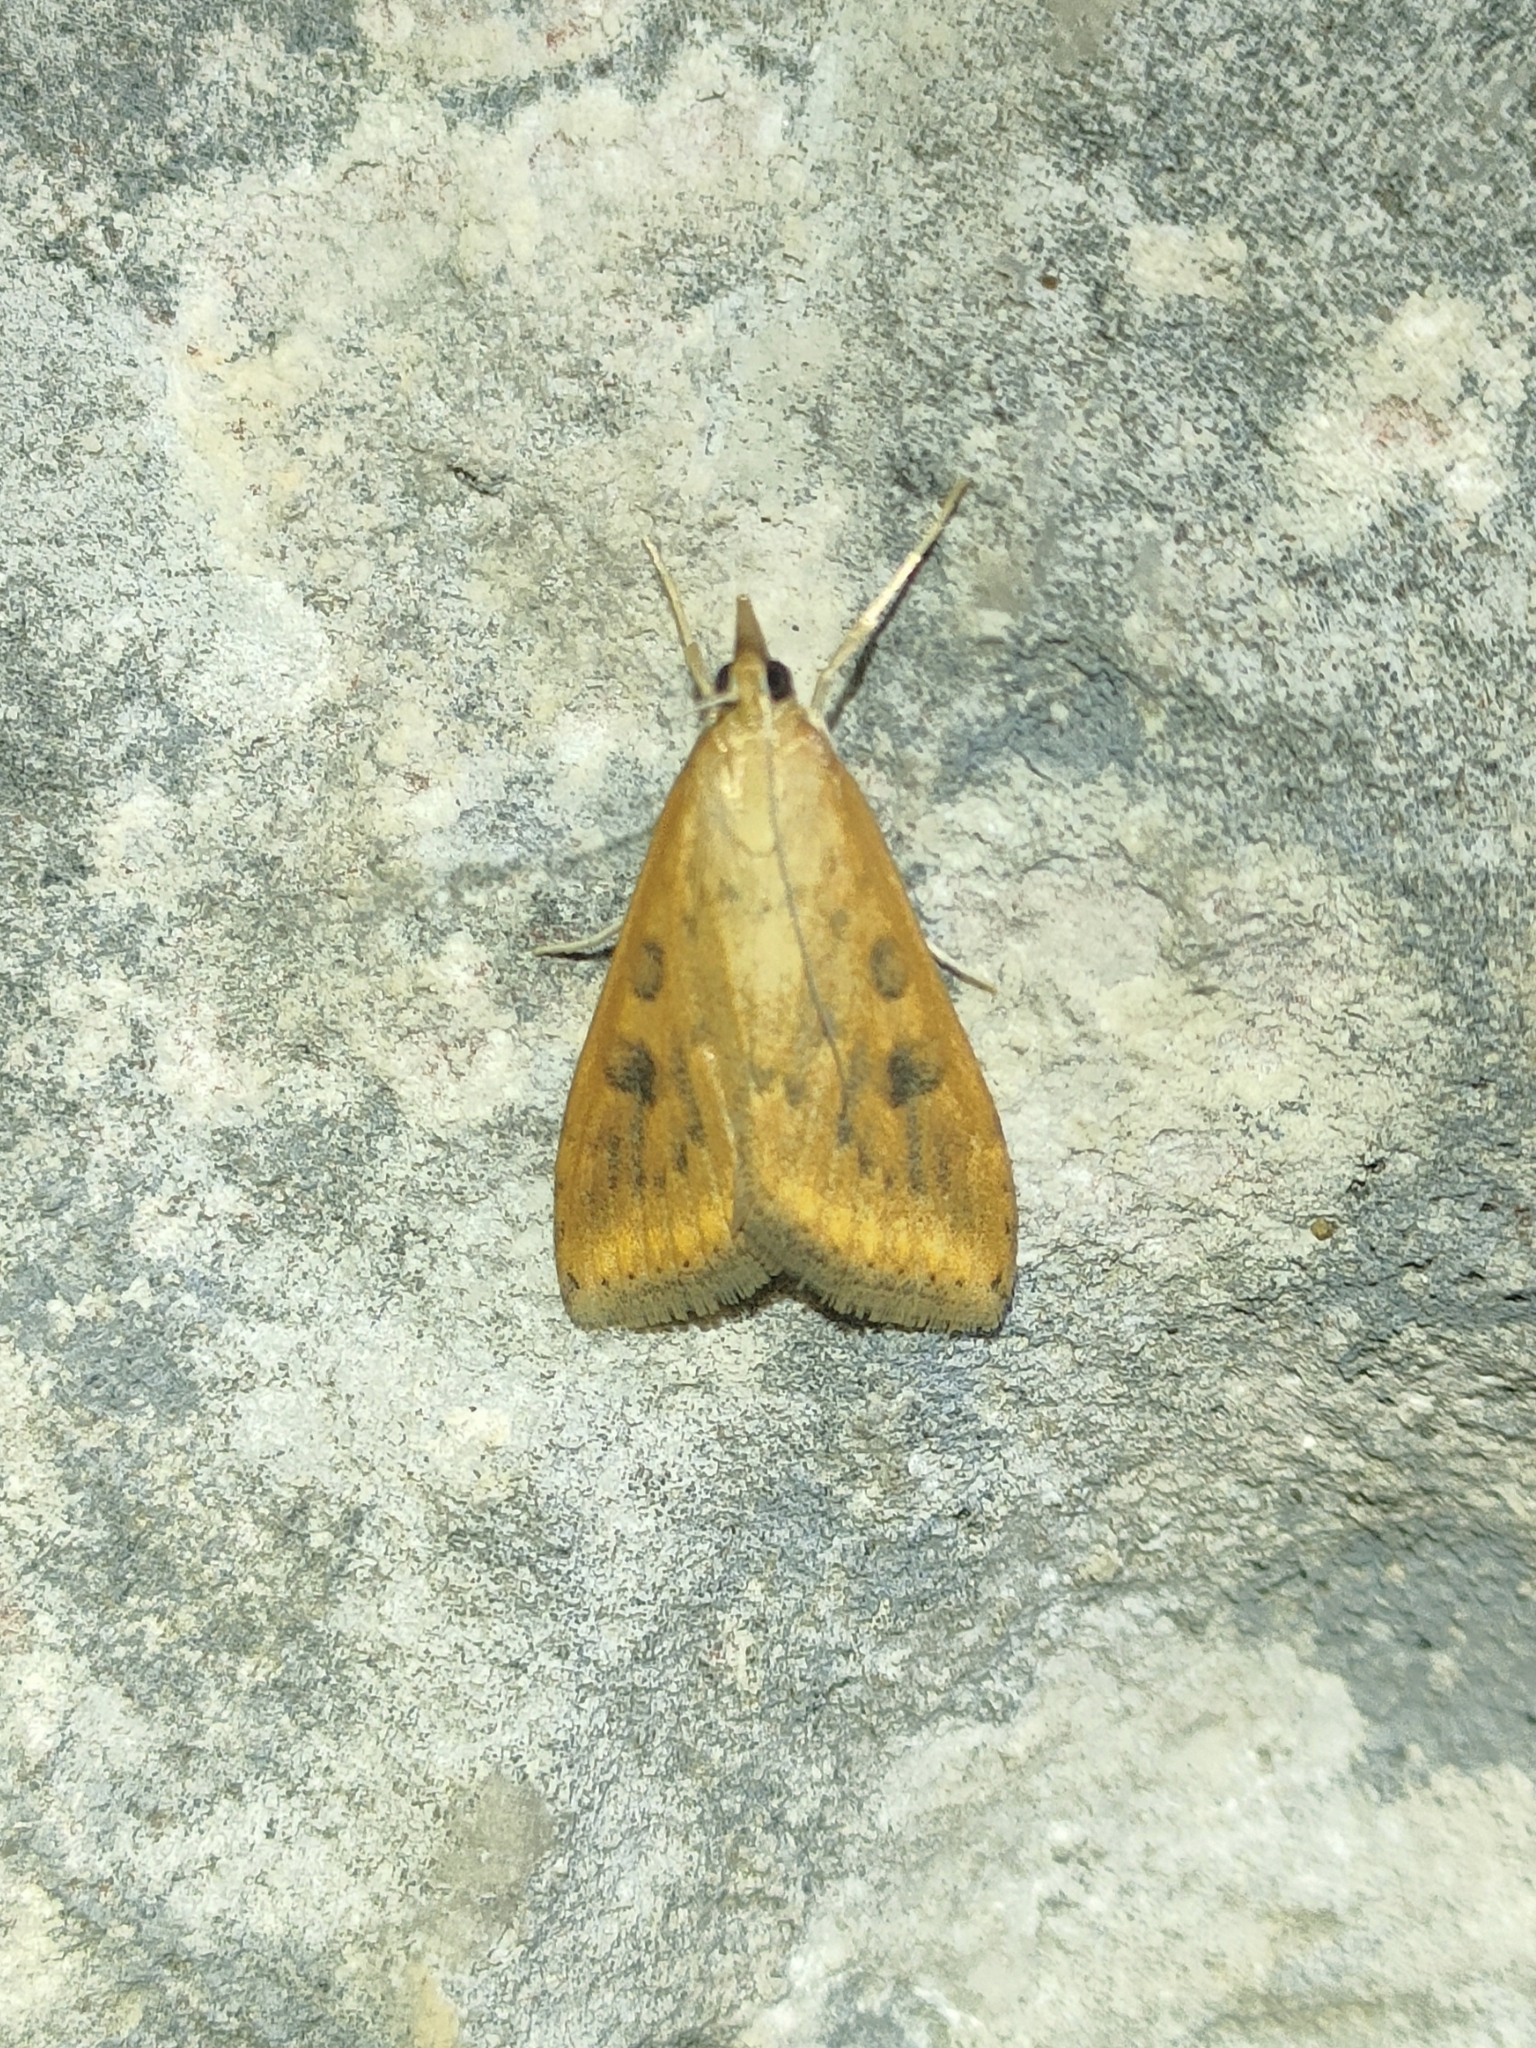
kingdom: Animalia
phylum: Arthropoda
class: Insecta
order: Lepidoptera
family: Crambidae
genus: Udea
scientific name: Udea ferrugalis
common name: Rusty dot
